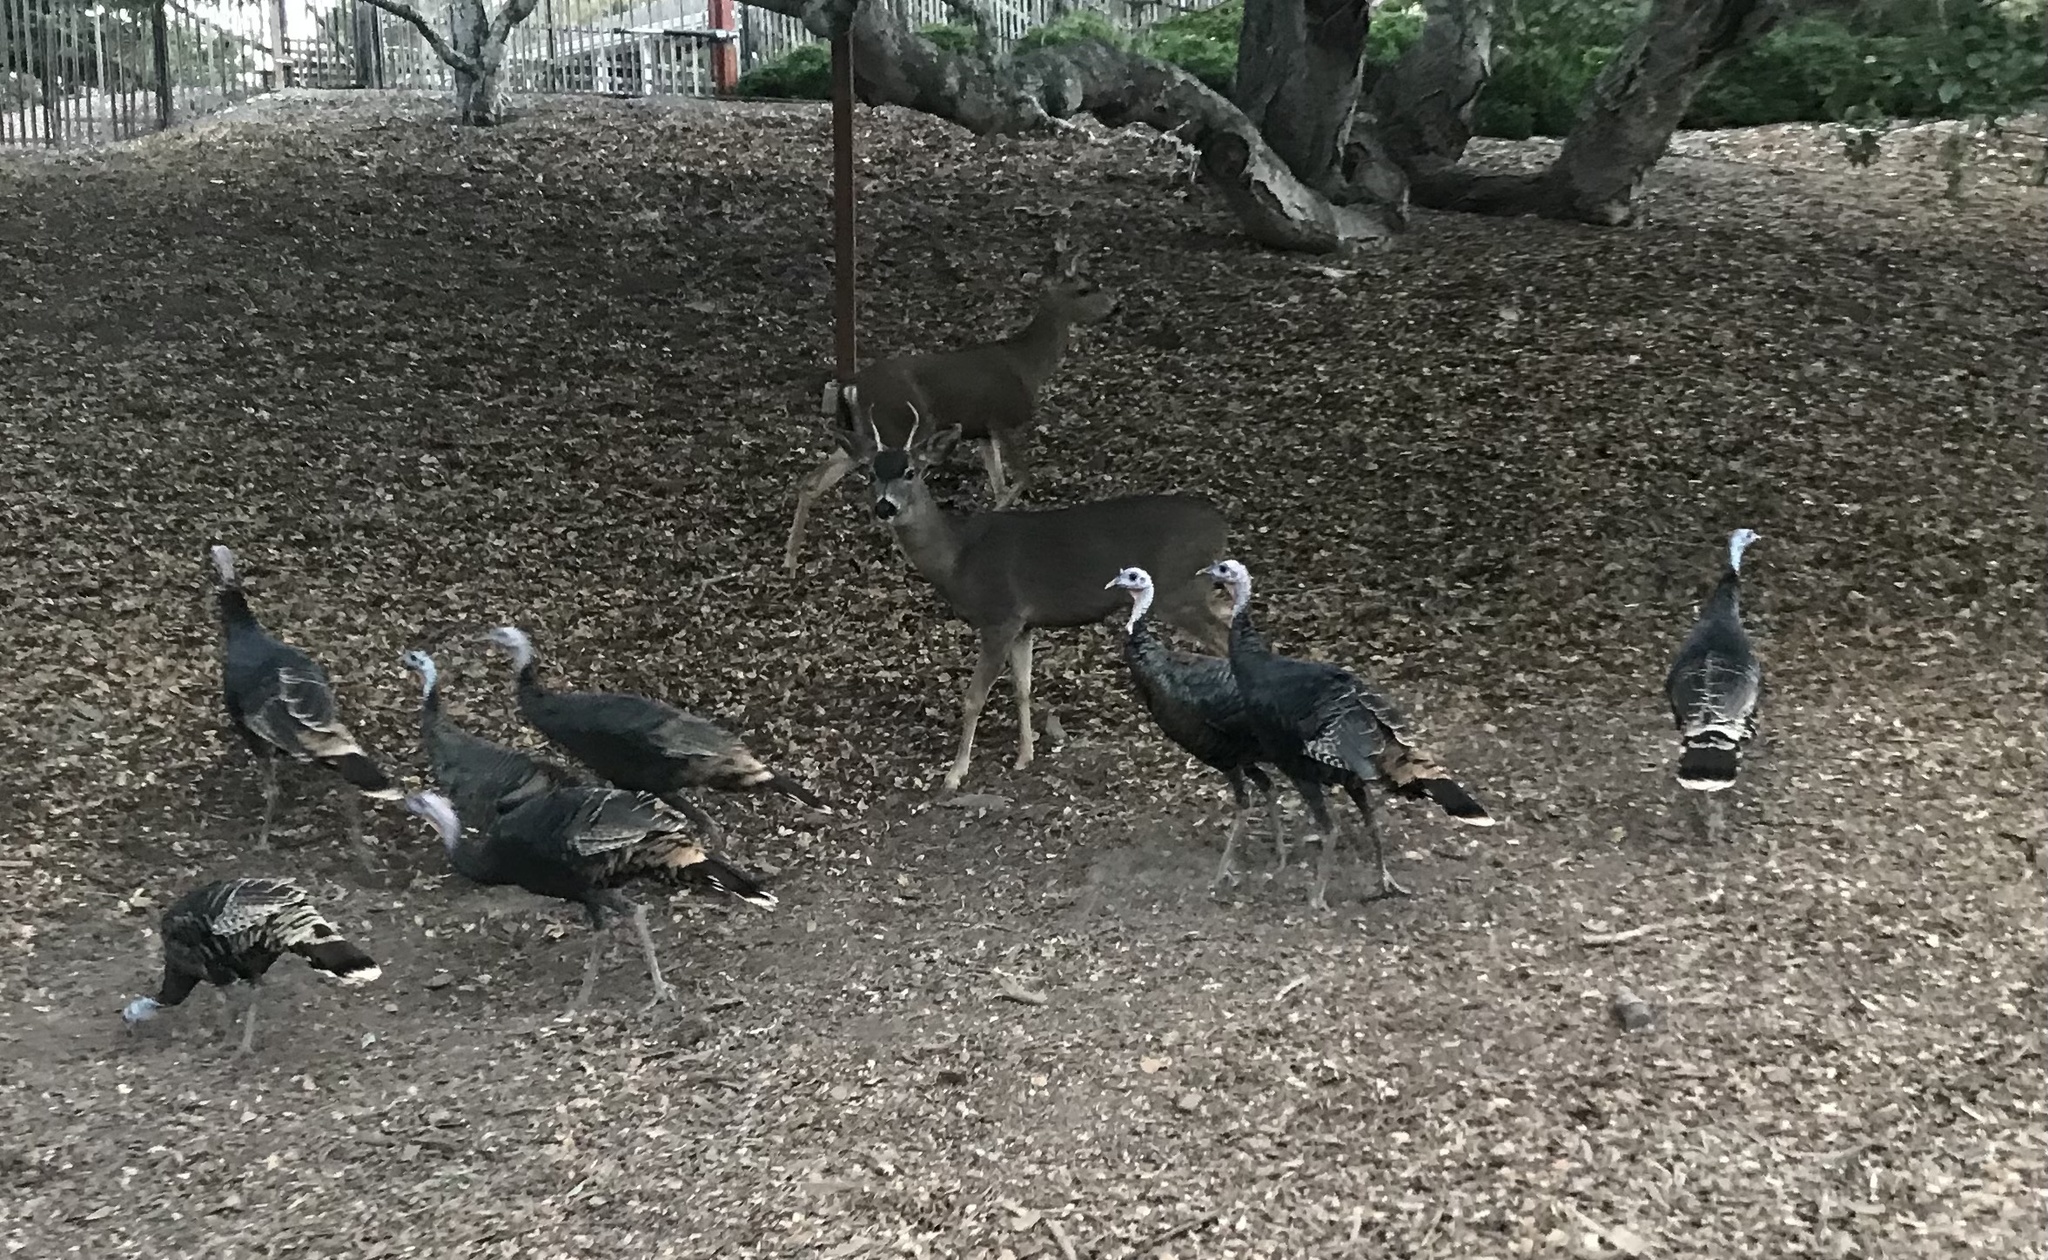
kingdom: Animalia
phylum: Chordata
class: Aves
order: Galliformes
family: Phasianidae
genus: Meleagris
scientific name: Meleagris gallopavo
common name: Wild turkey
